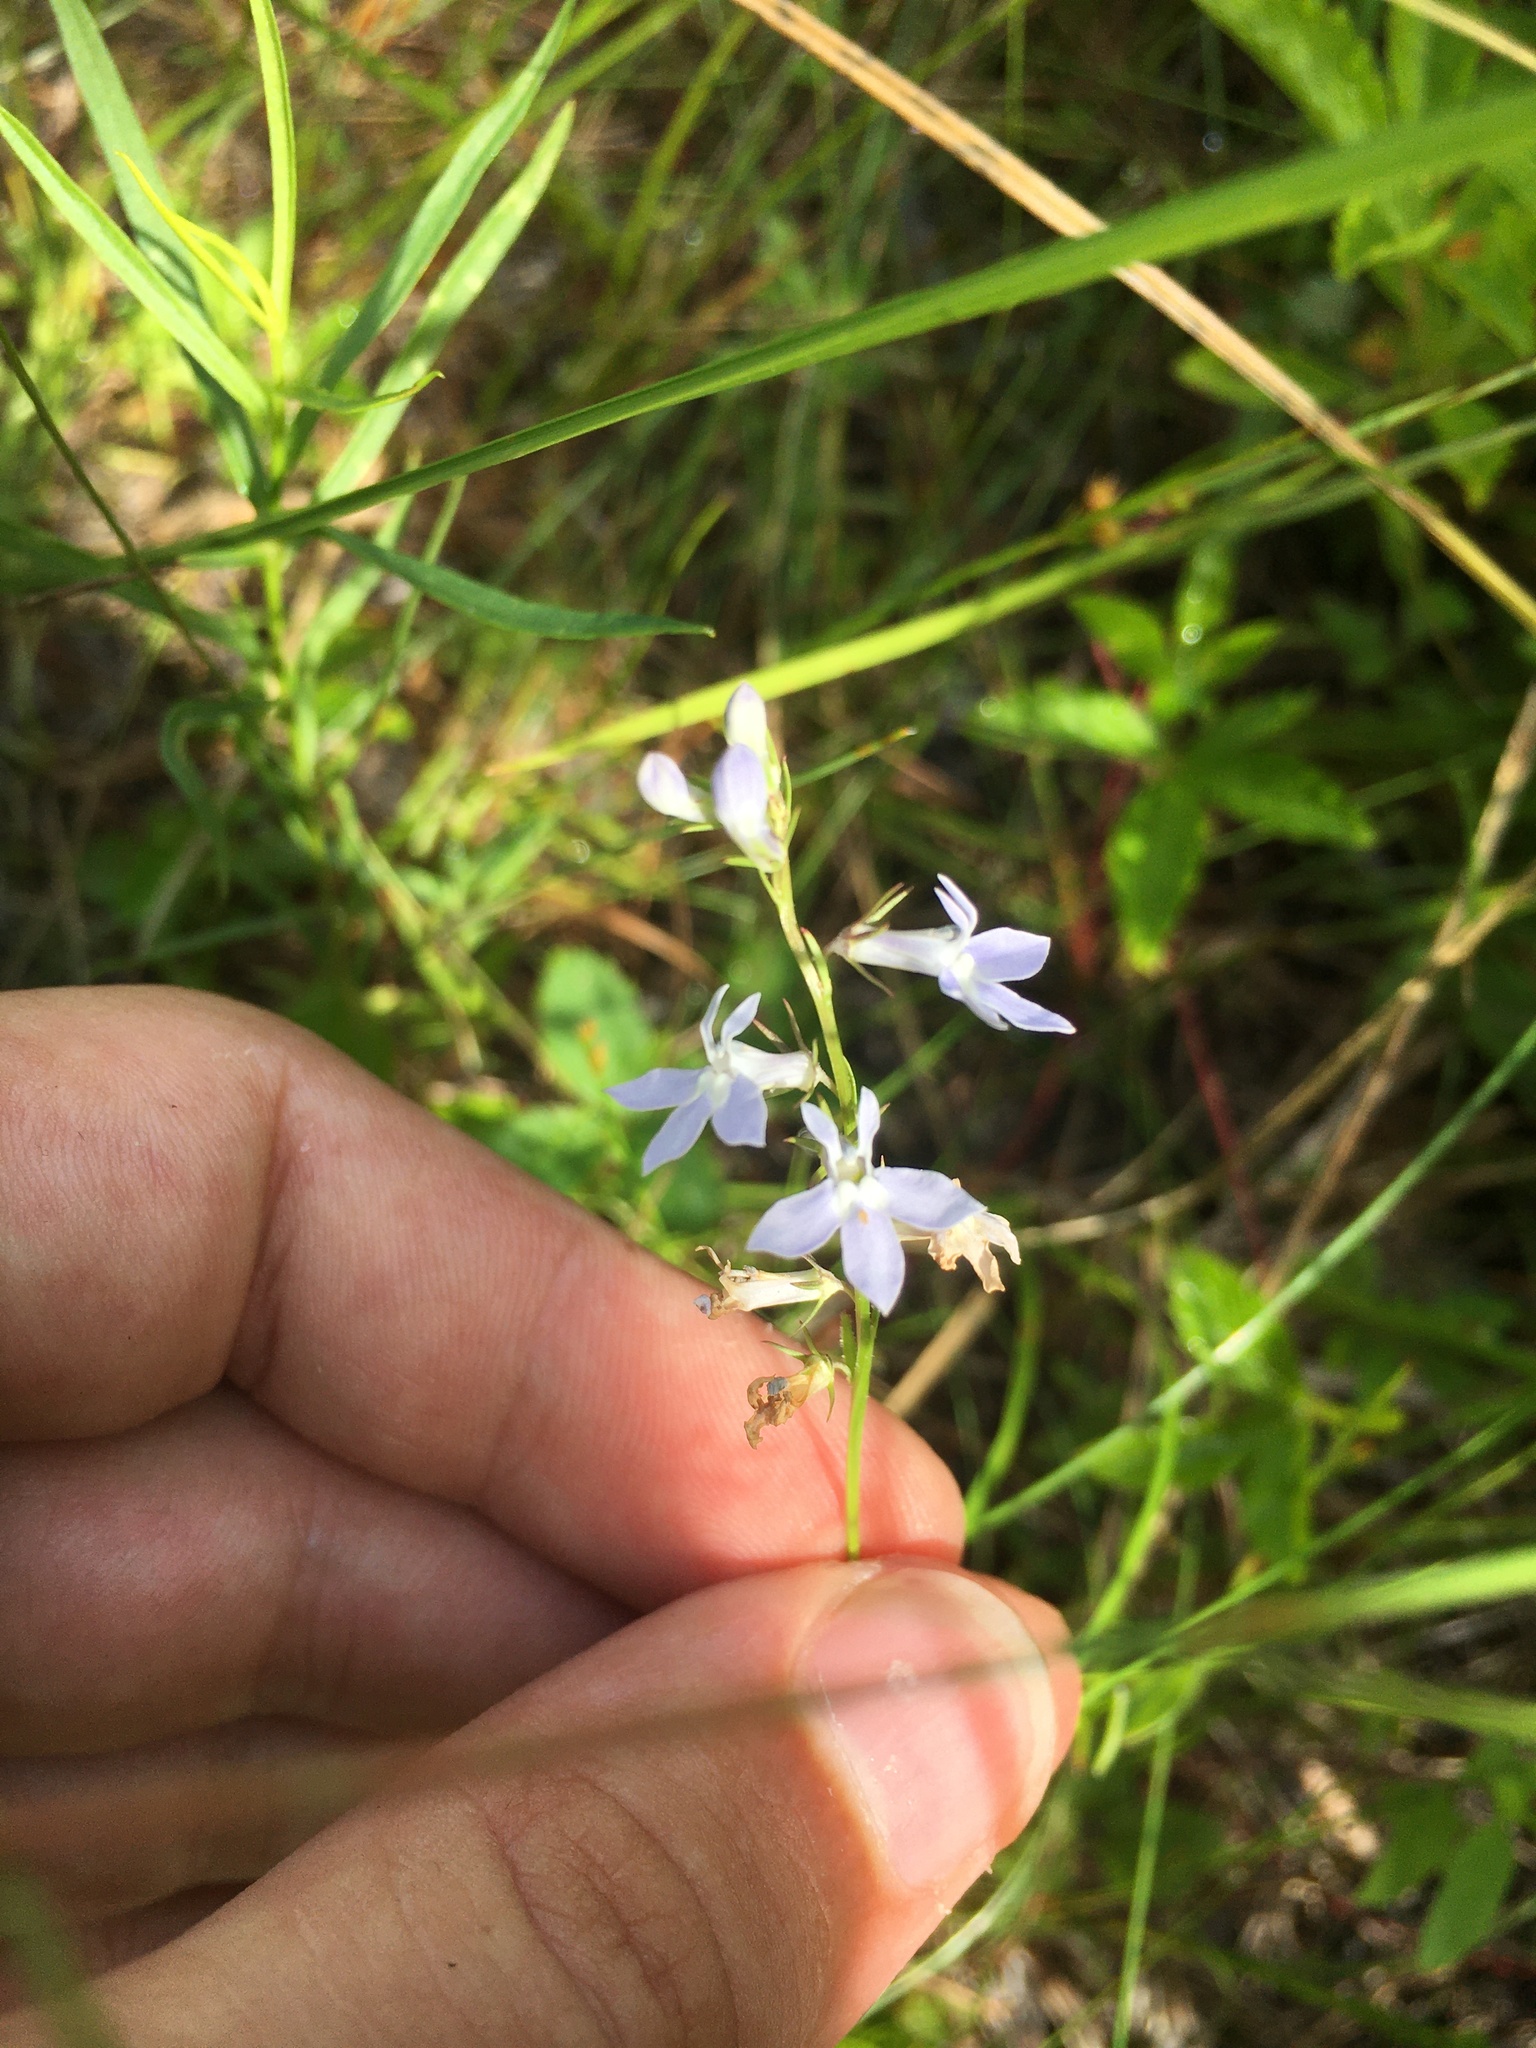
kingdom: Plantae
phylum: Tracheophyta
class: Magnoliopsida
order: Asterales
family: Campanulaceae
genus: Lobelia
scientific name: Lobelia spicata
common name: Pale-spike lobelia
